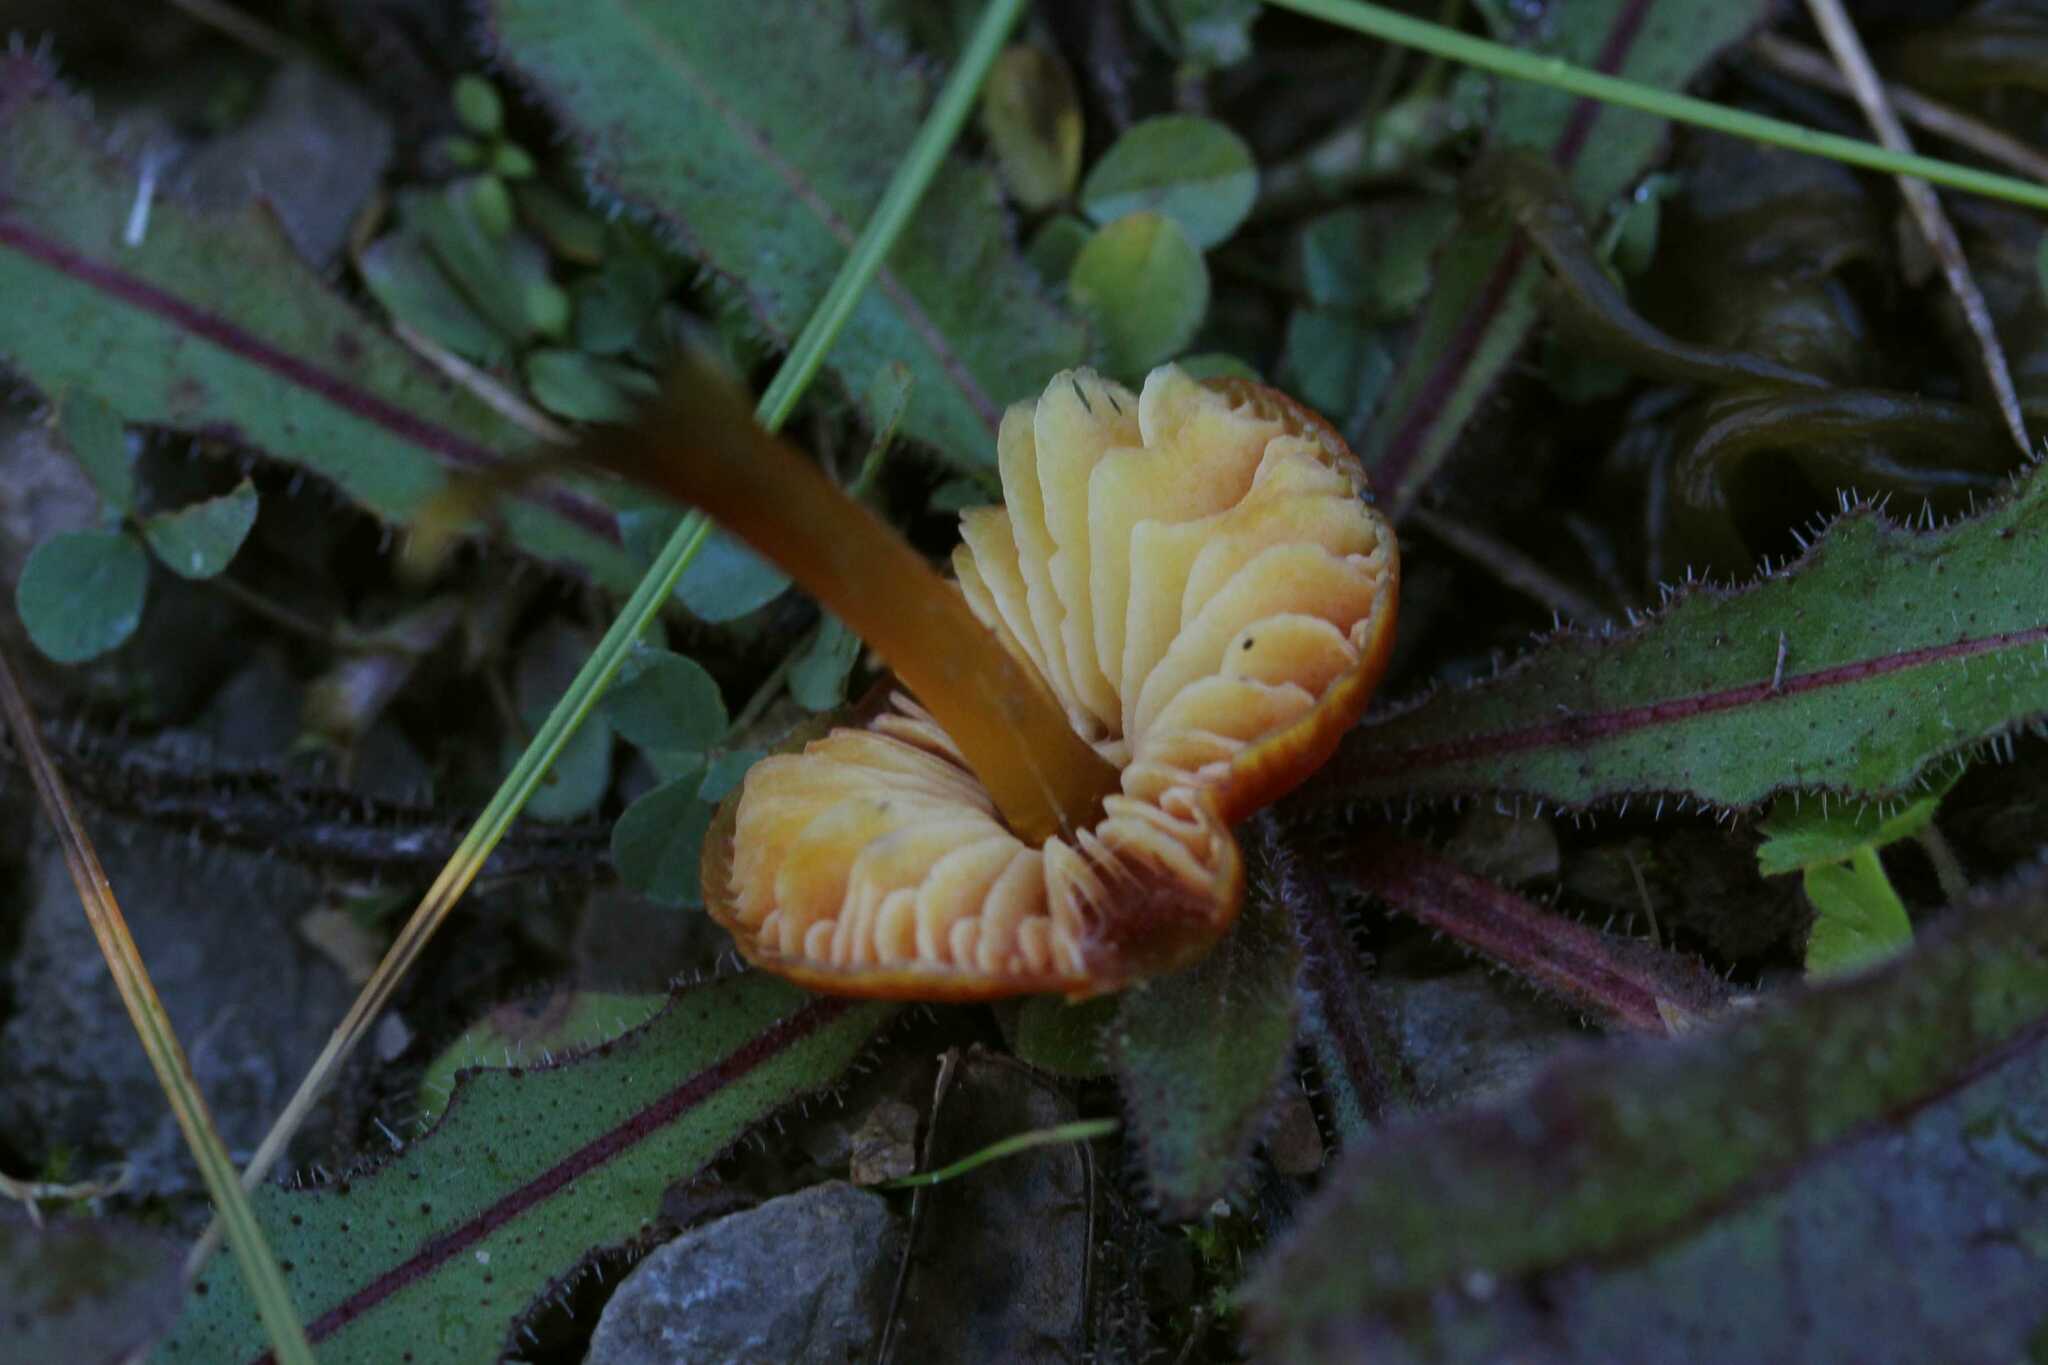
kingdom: Fungi
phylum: Basidiomycota
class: Agaricomycetes
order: Agaricales
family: Hygrophoraceae
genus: Hygrocybe
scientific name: Hygrocybe conica
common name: Blackening wax-cap
